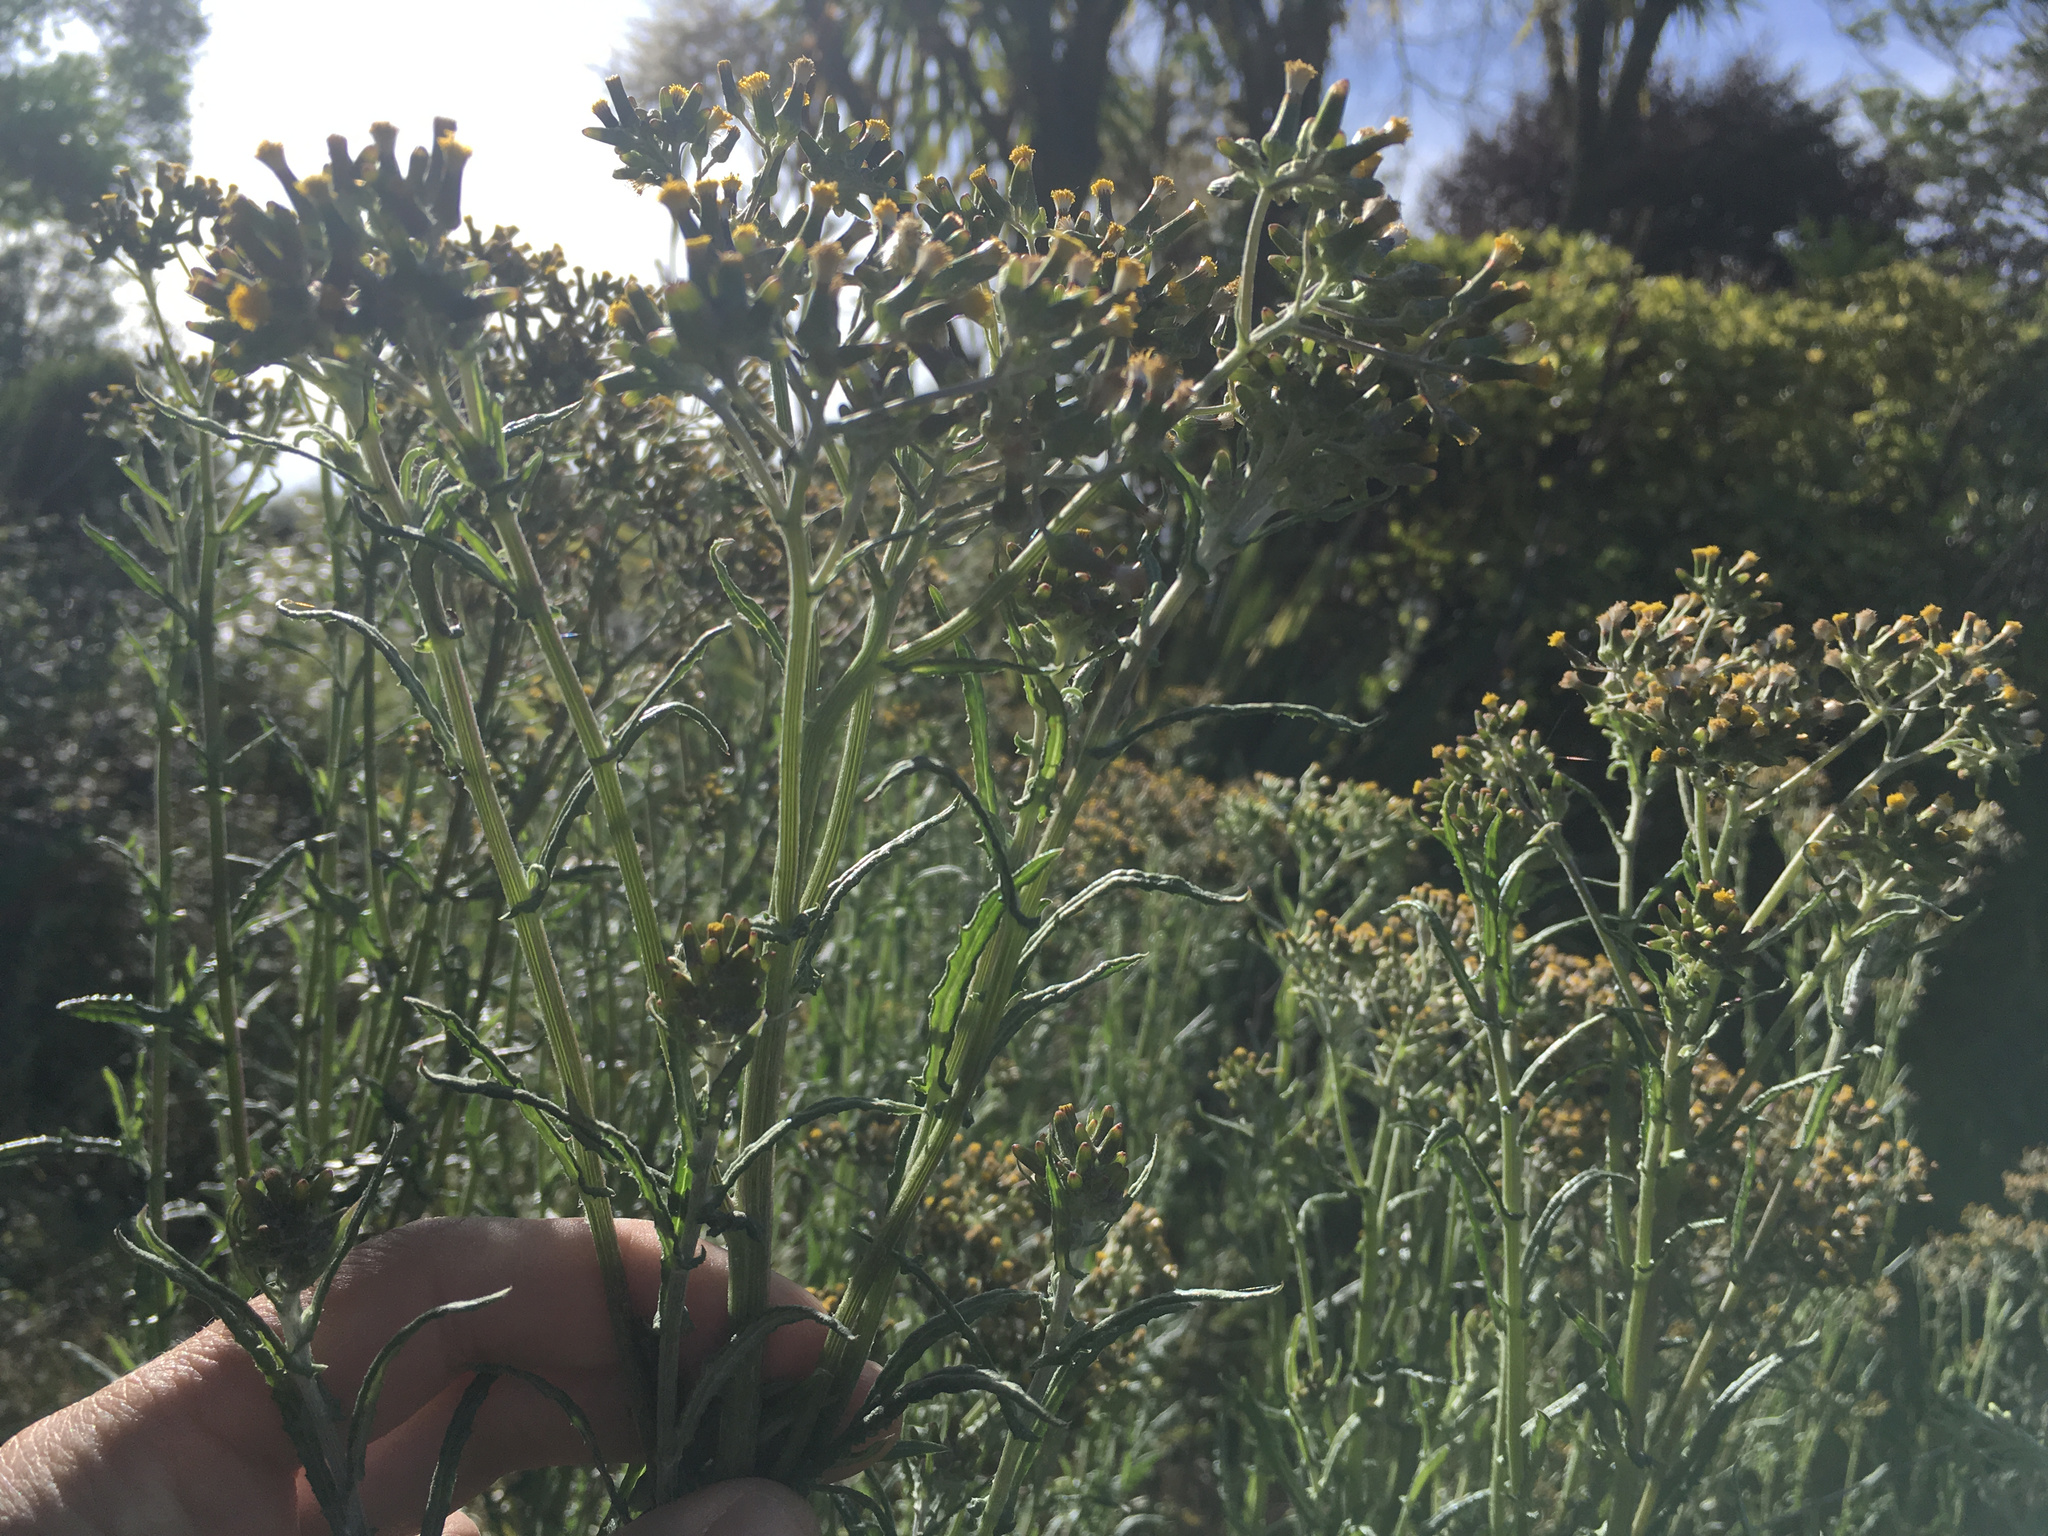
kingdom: Plantae
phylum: Tracheophyta
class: Magnoliopsida
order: Asterales
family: Asteraceae
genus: Senecio
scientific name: Senecio glomeratus
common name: Cutleaf burnweed
